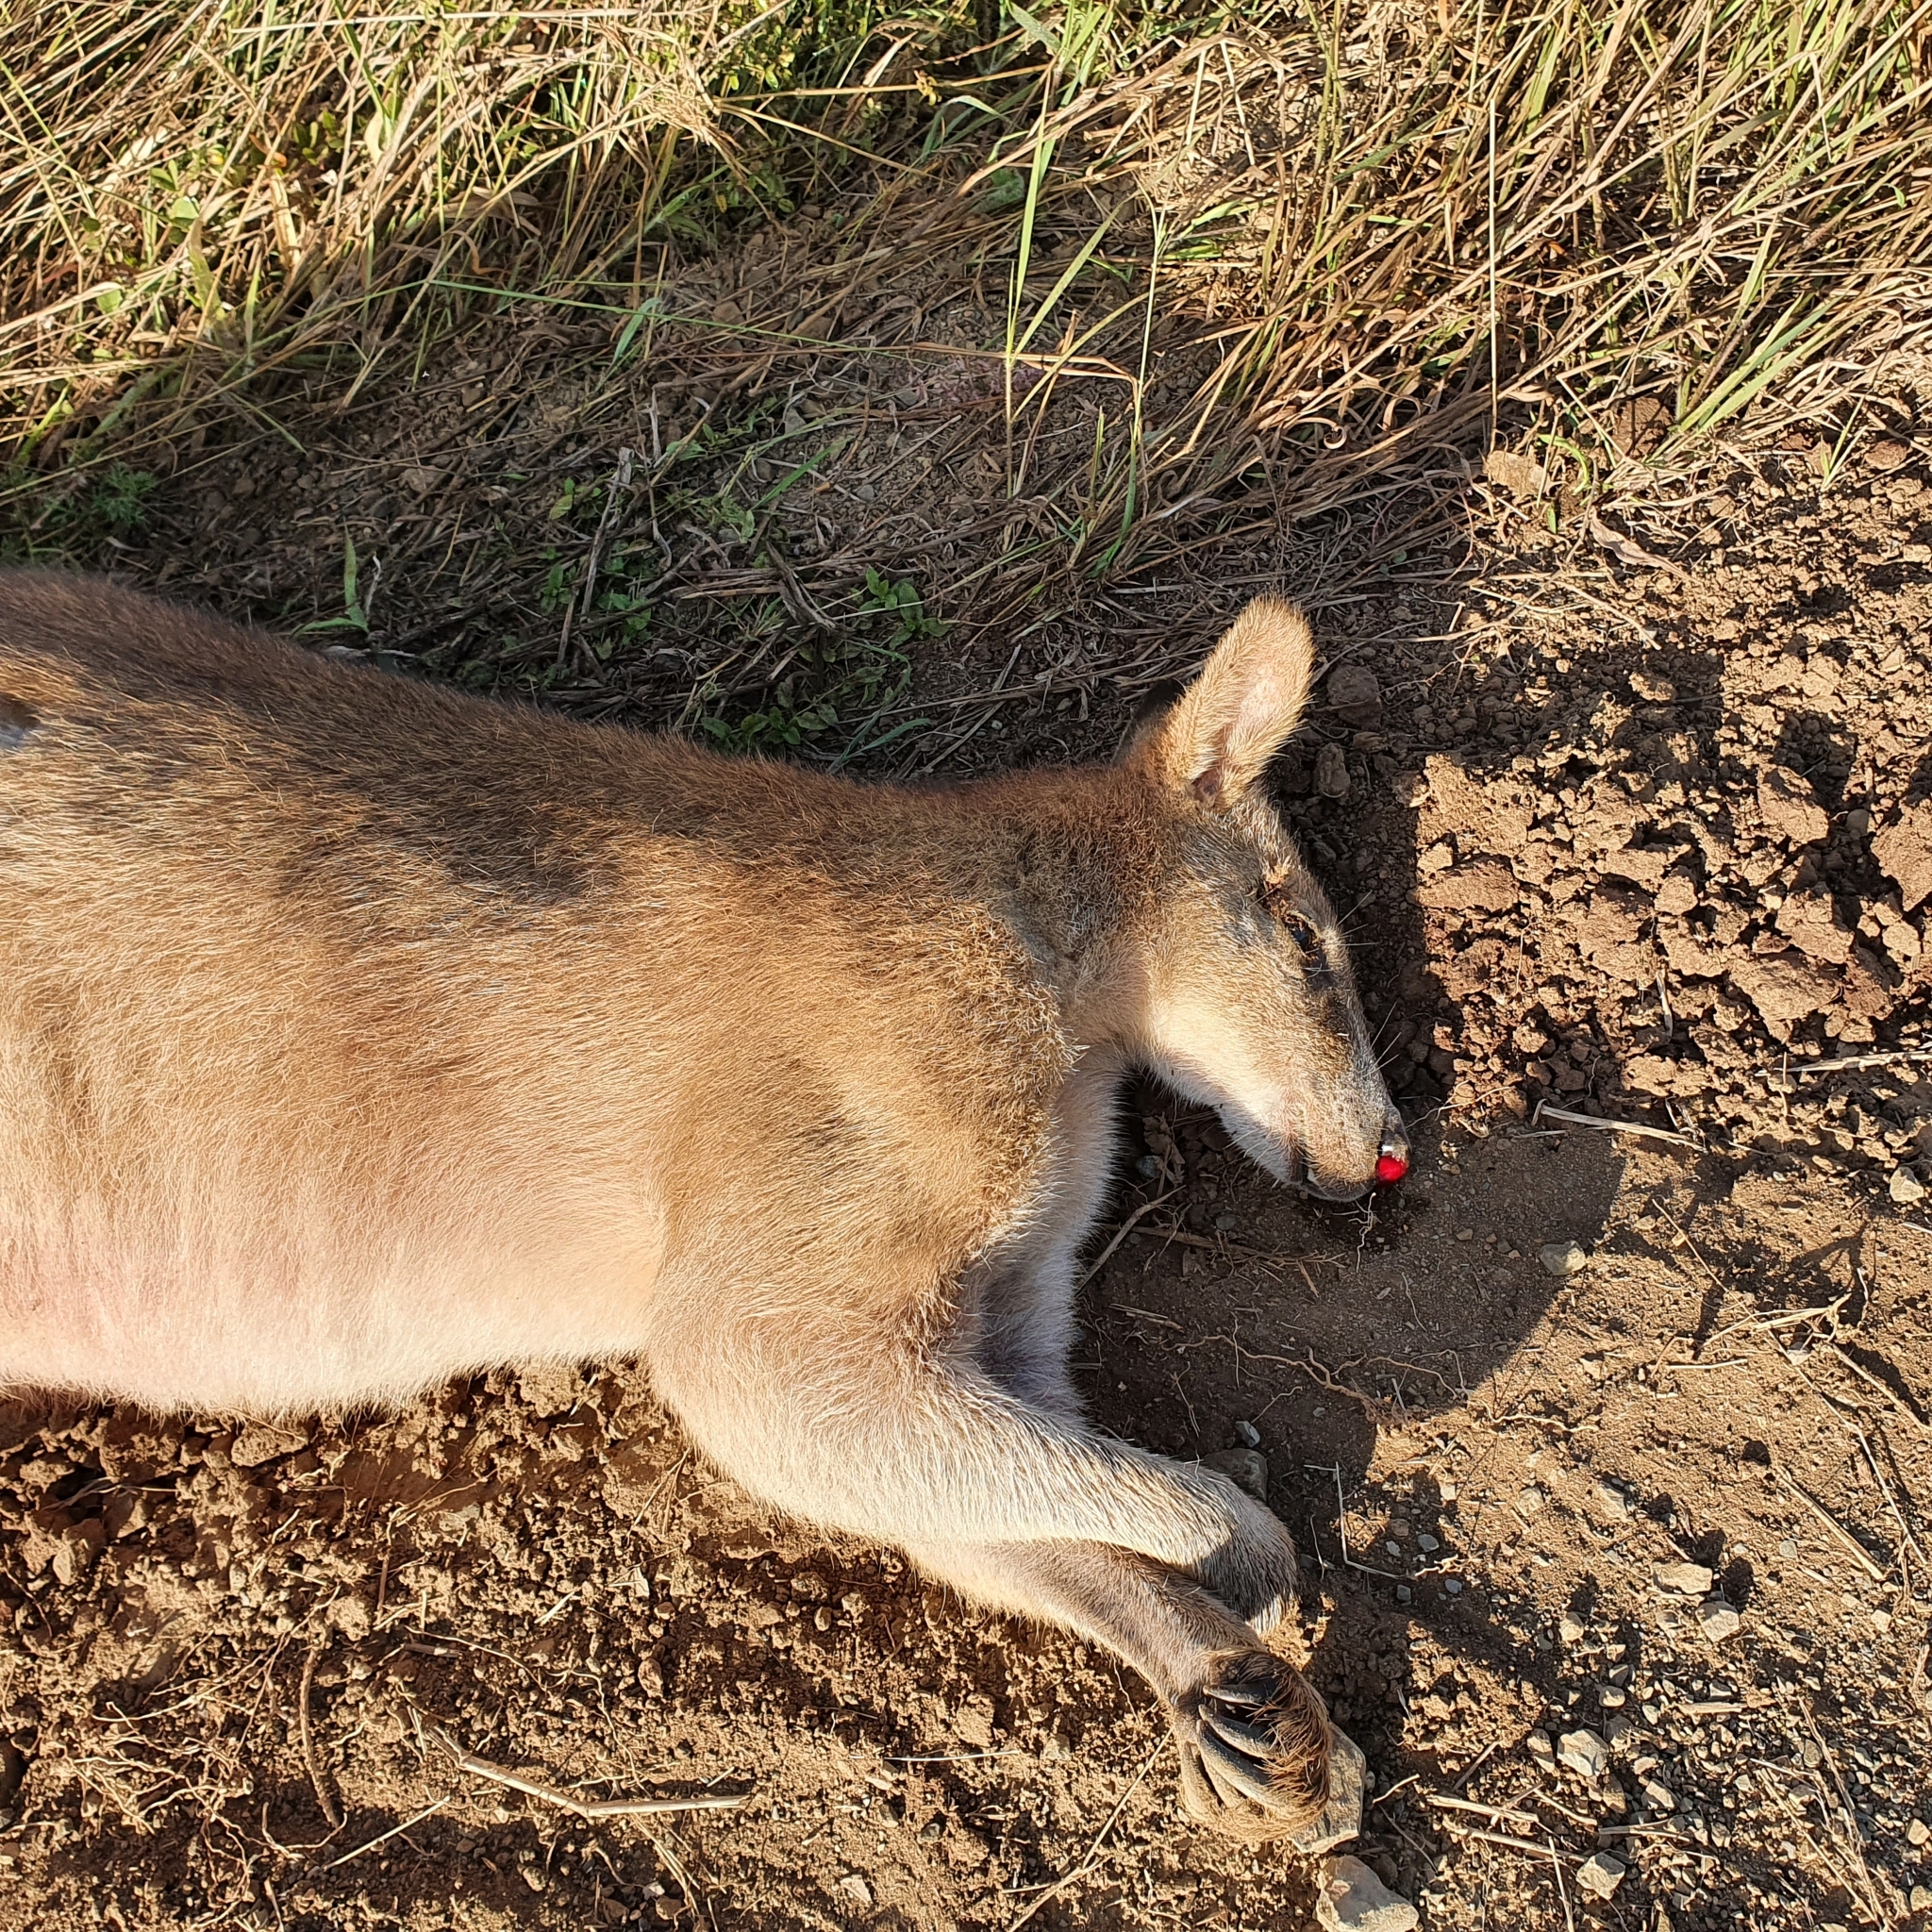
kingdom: Animalia
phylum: Chordata
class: Mammalia
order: Diprotodontia
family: Macropodidae
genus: Macropus
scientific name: Macropus agilis
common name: Agile wallaby
